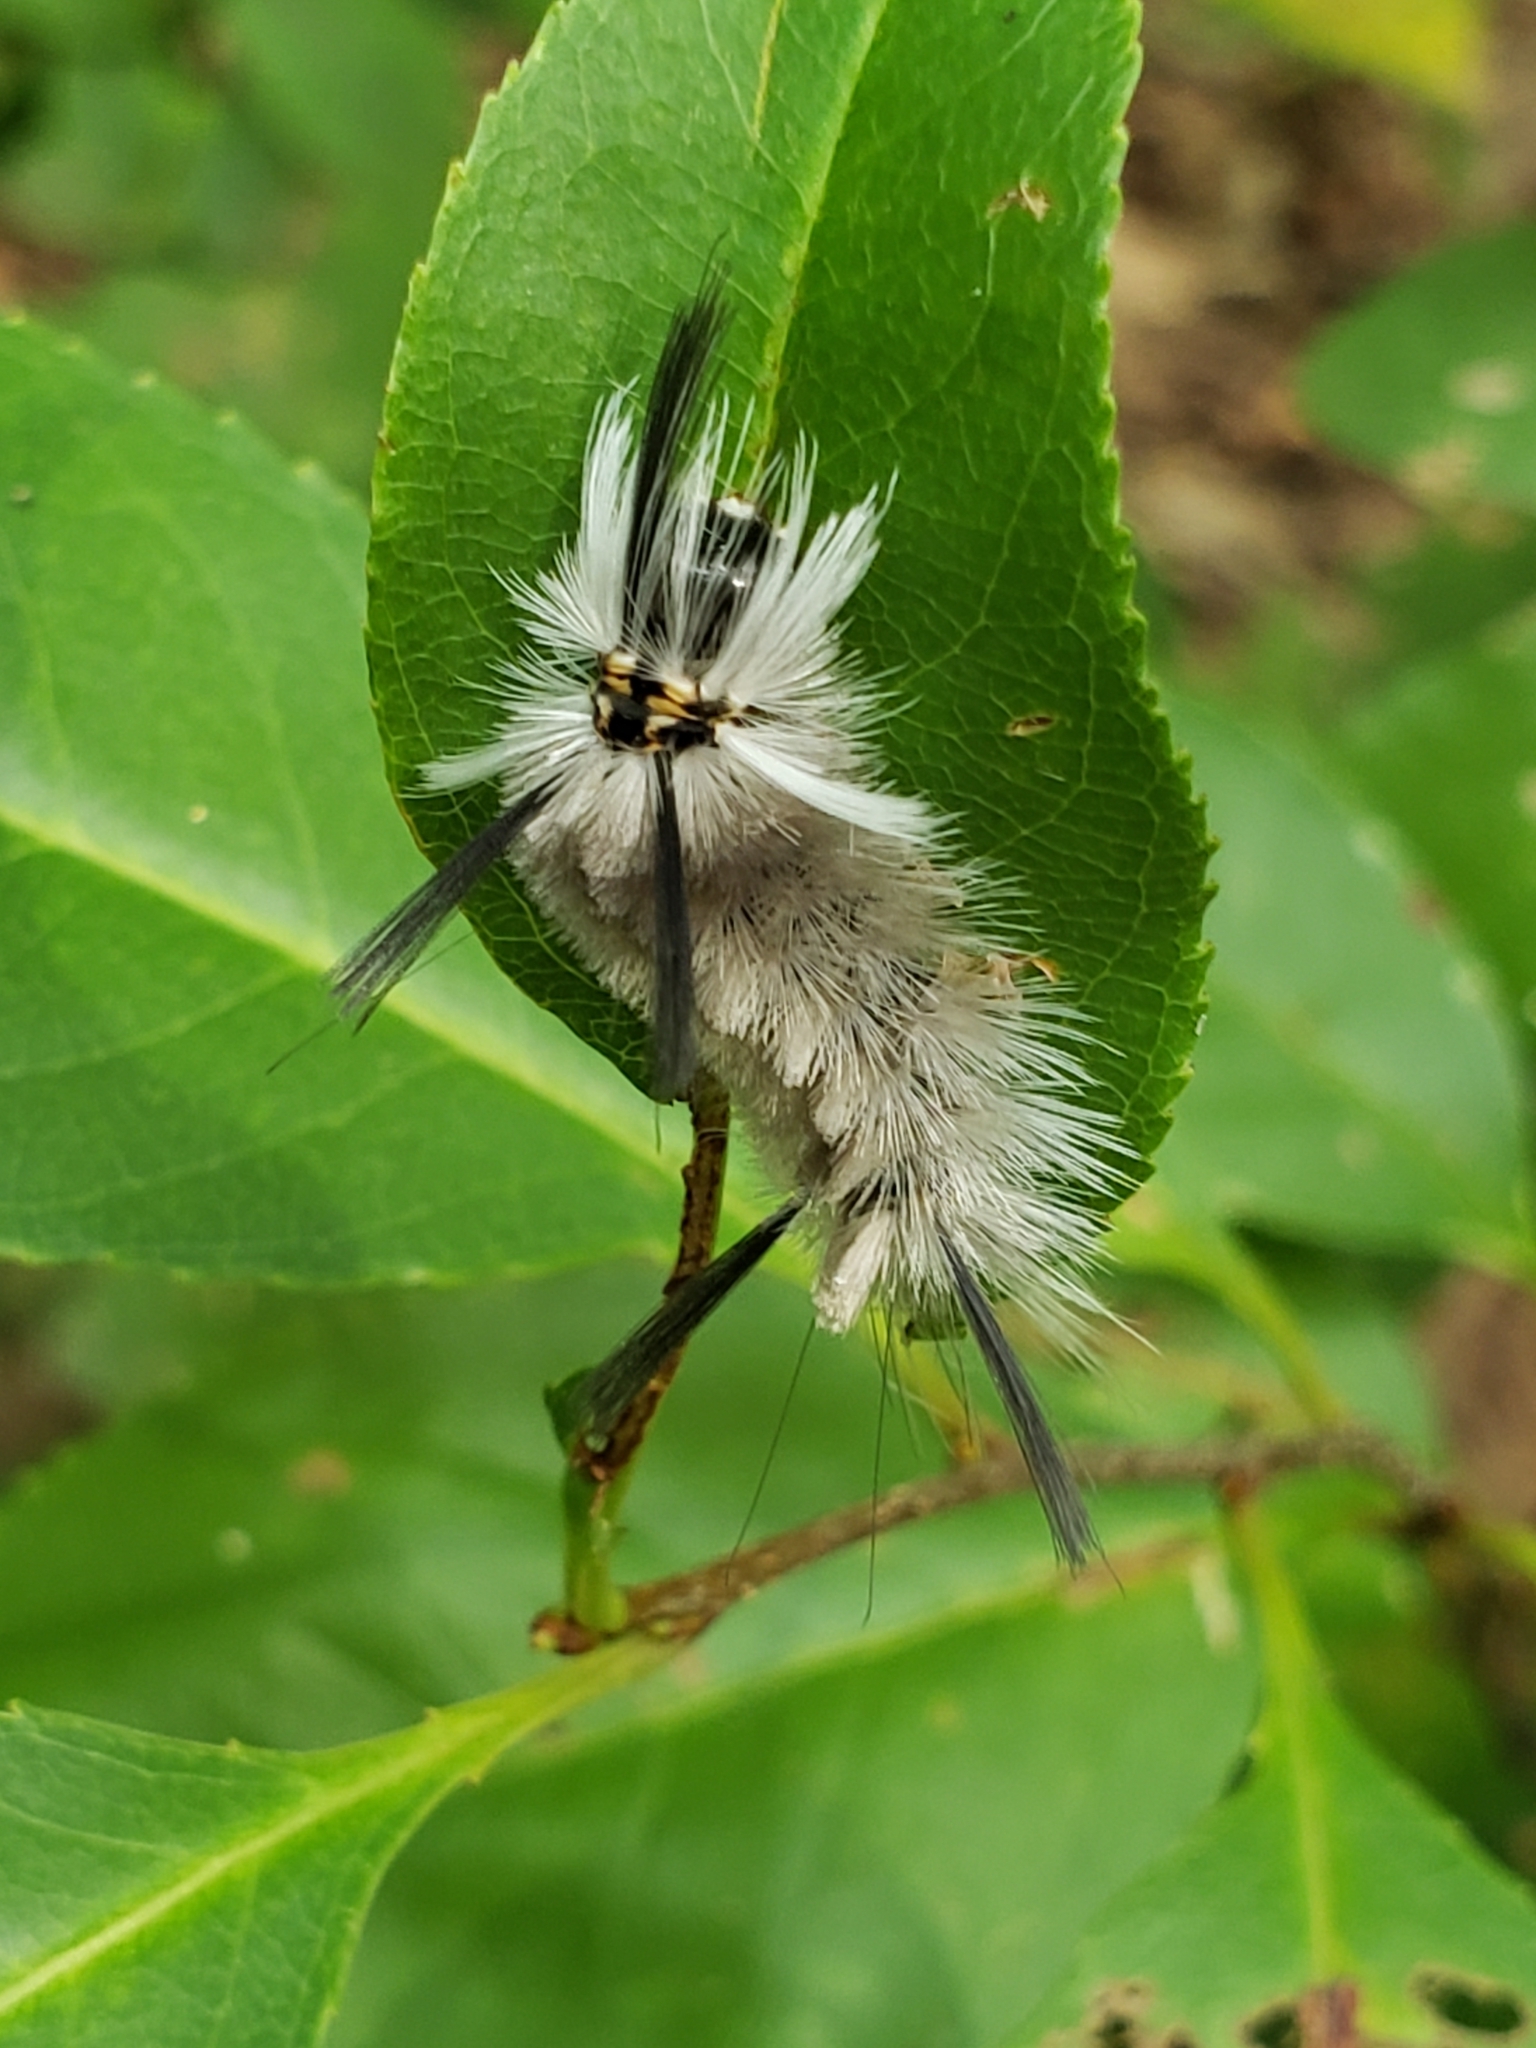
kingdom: Animalia
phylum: Arthropoda
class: Insecta
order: Lepidoptera
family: Erebidae
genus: Halysidota
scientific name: Halysidota tessellaris
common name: Banded tussock moth
